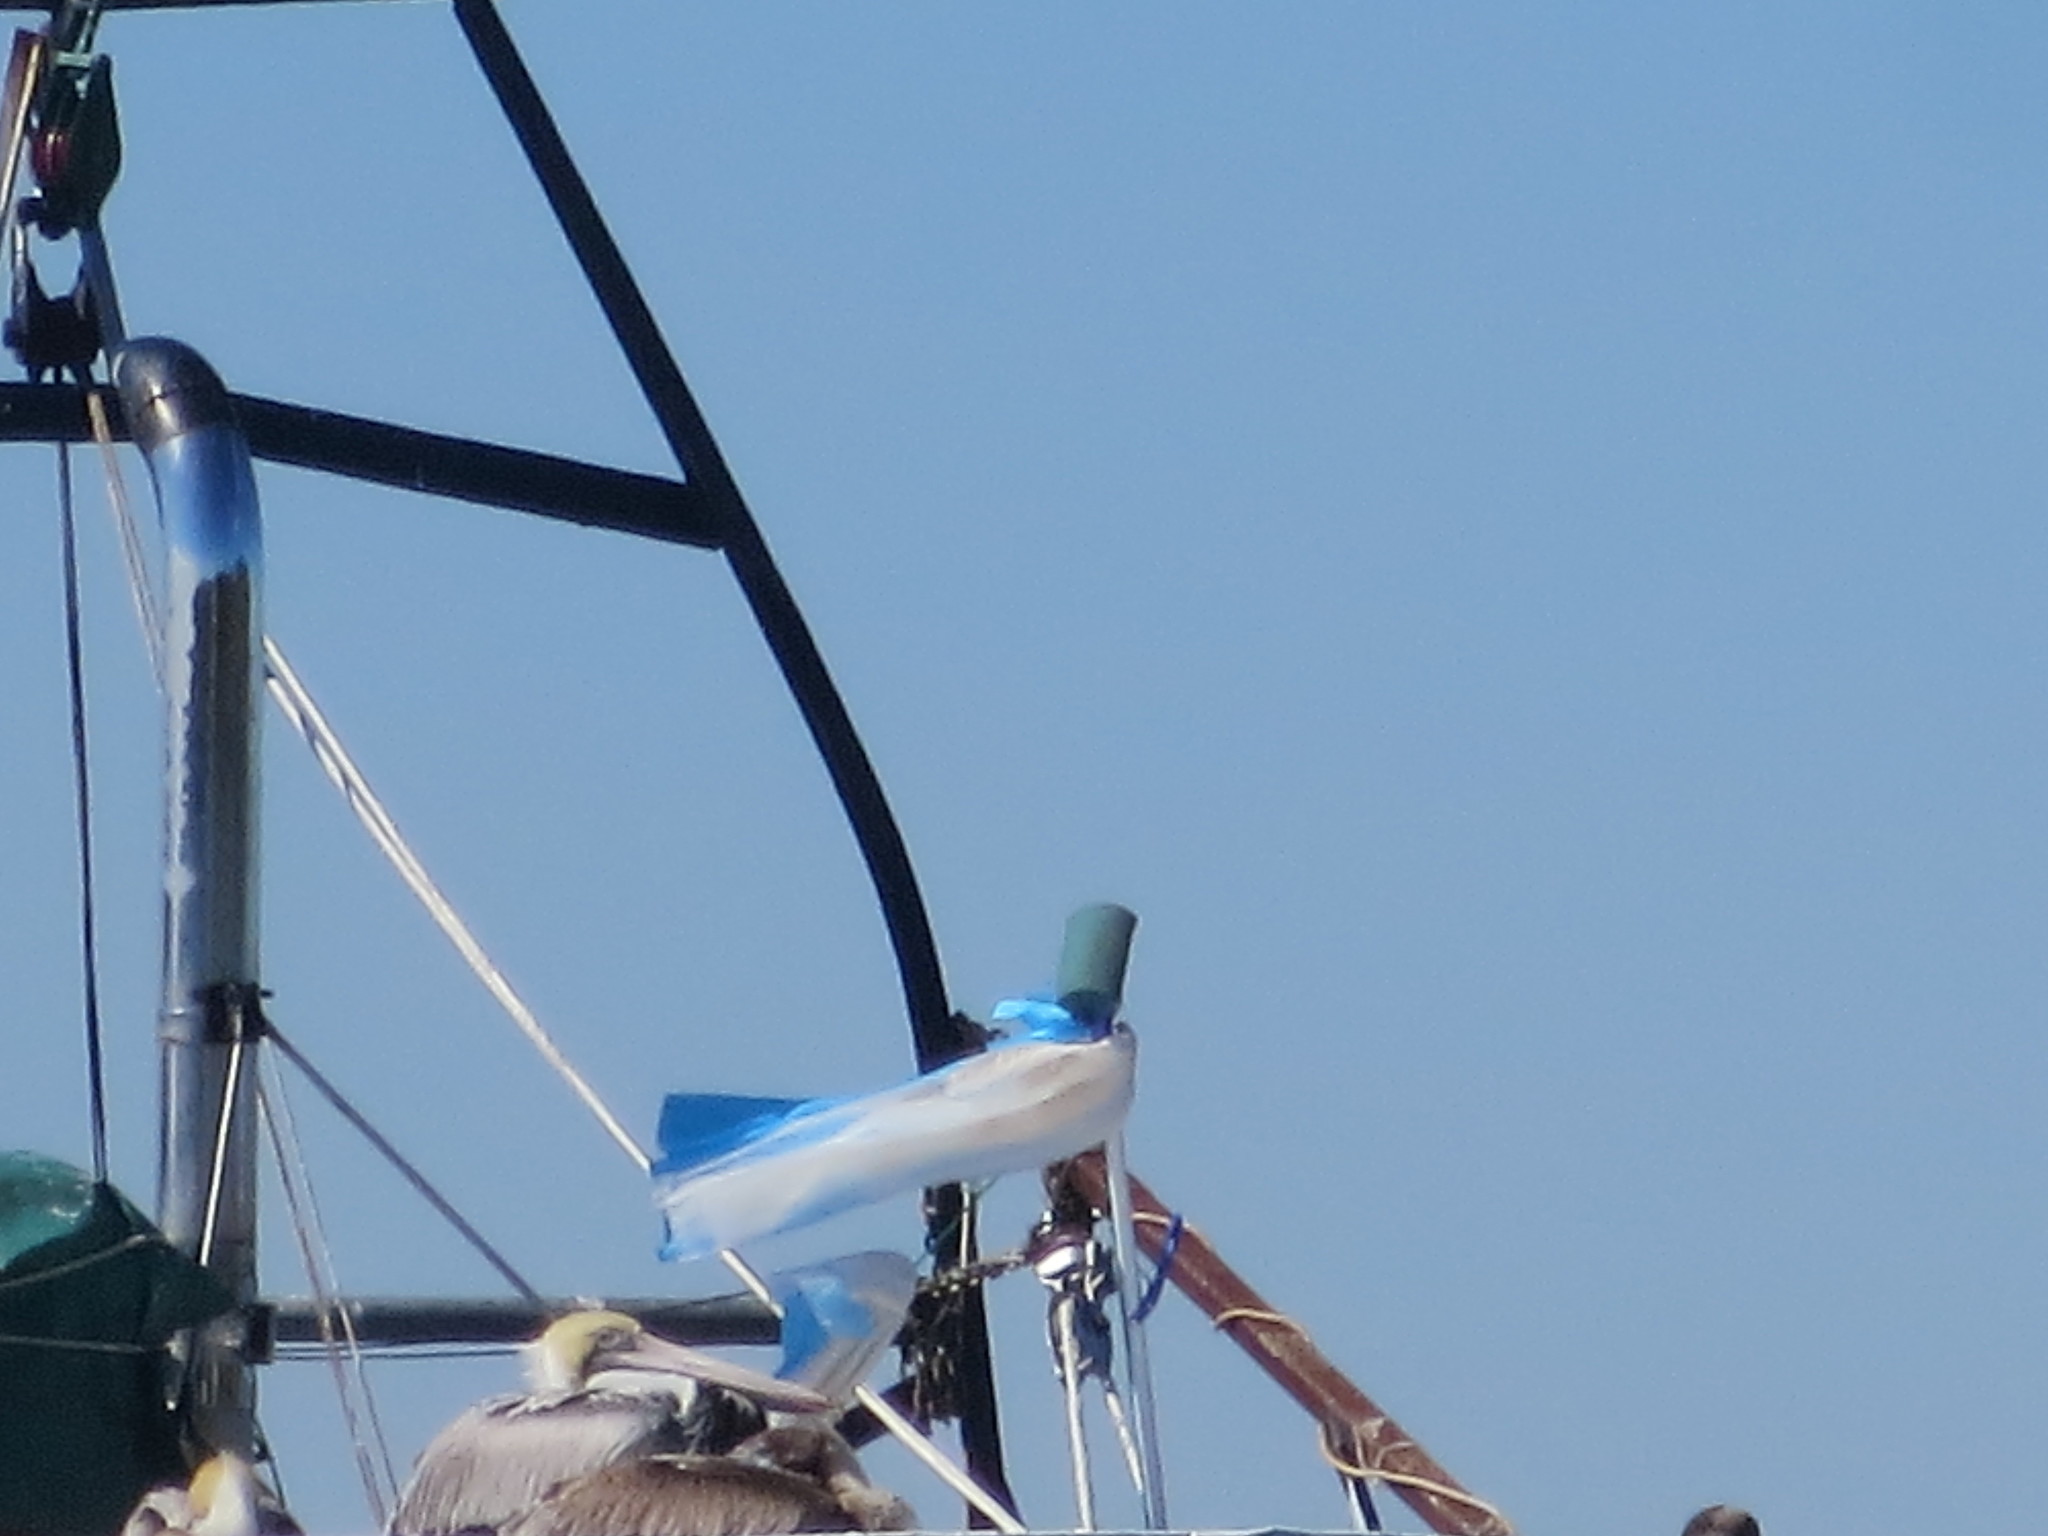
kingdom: Animalia
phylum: Chordata
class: Aves
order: Pelecaniformes
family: Pelecanidae
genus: Pelecanus
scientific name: Pelecanus occidentalis
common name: Brown pelican
